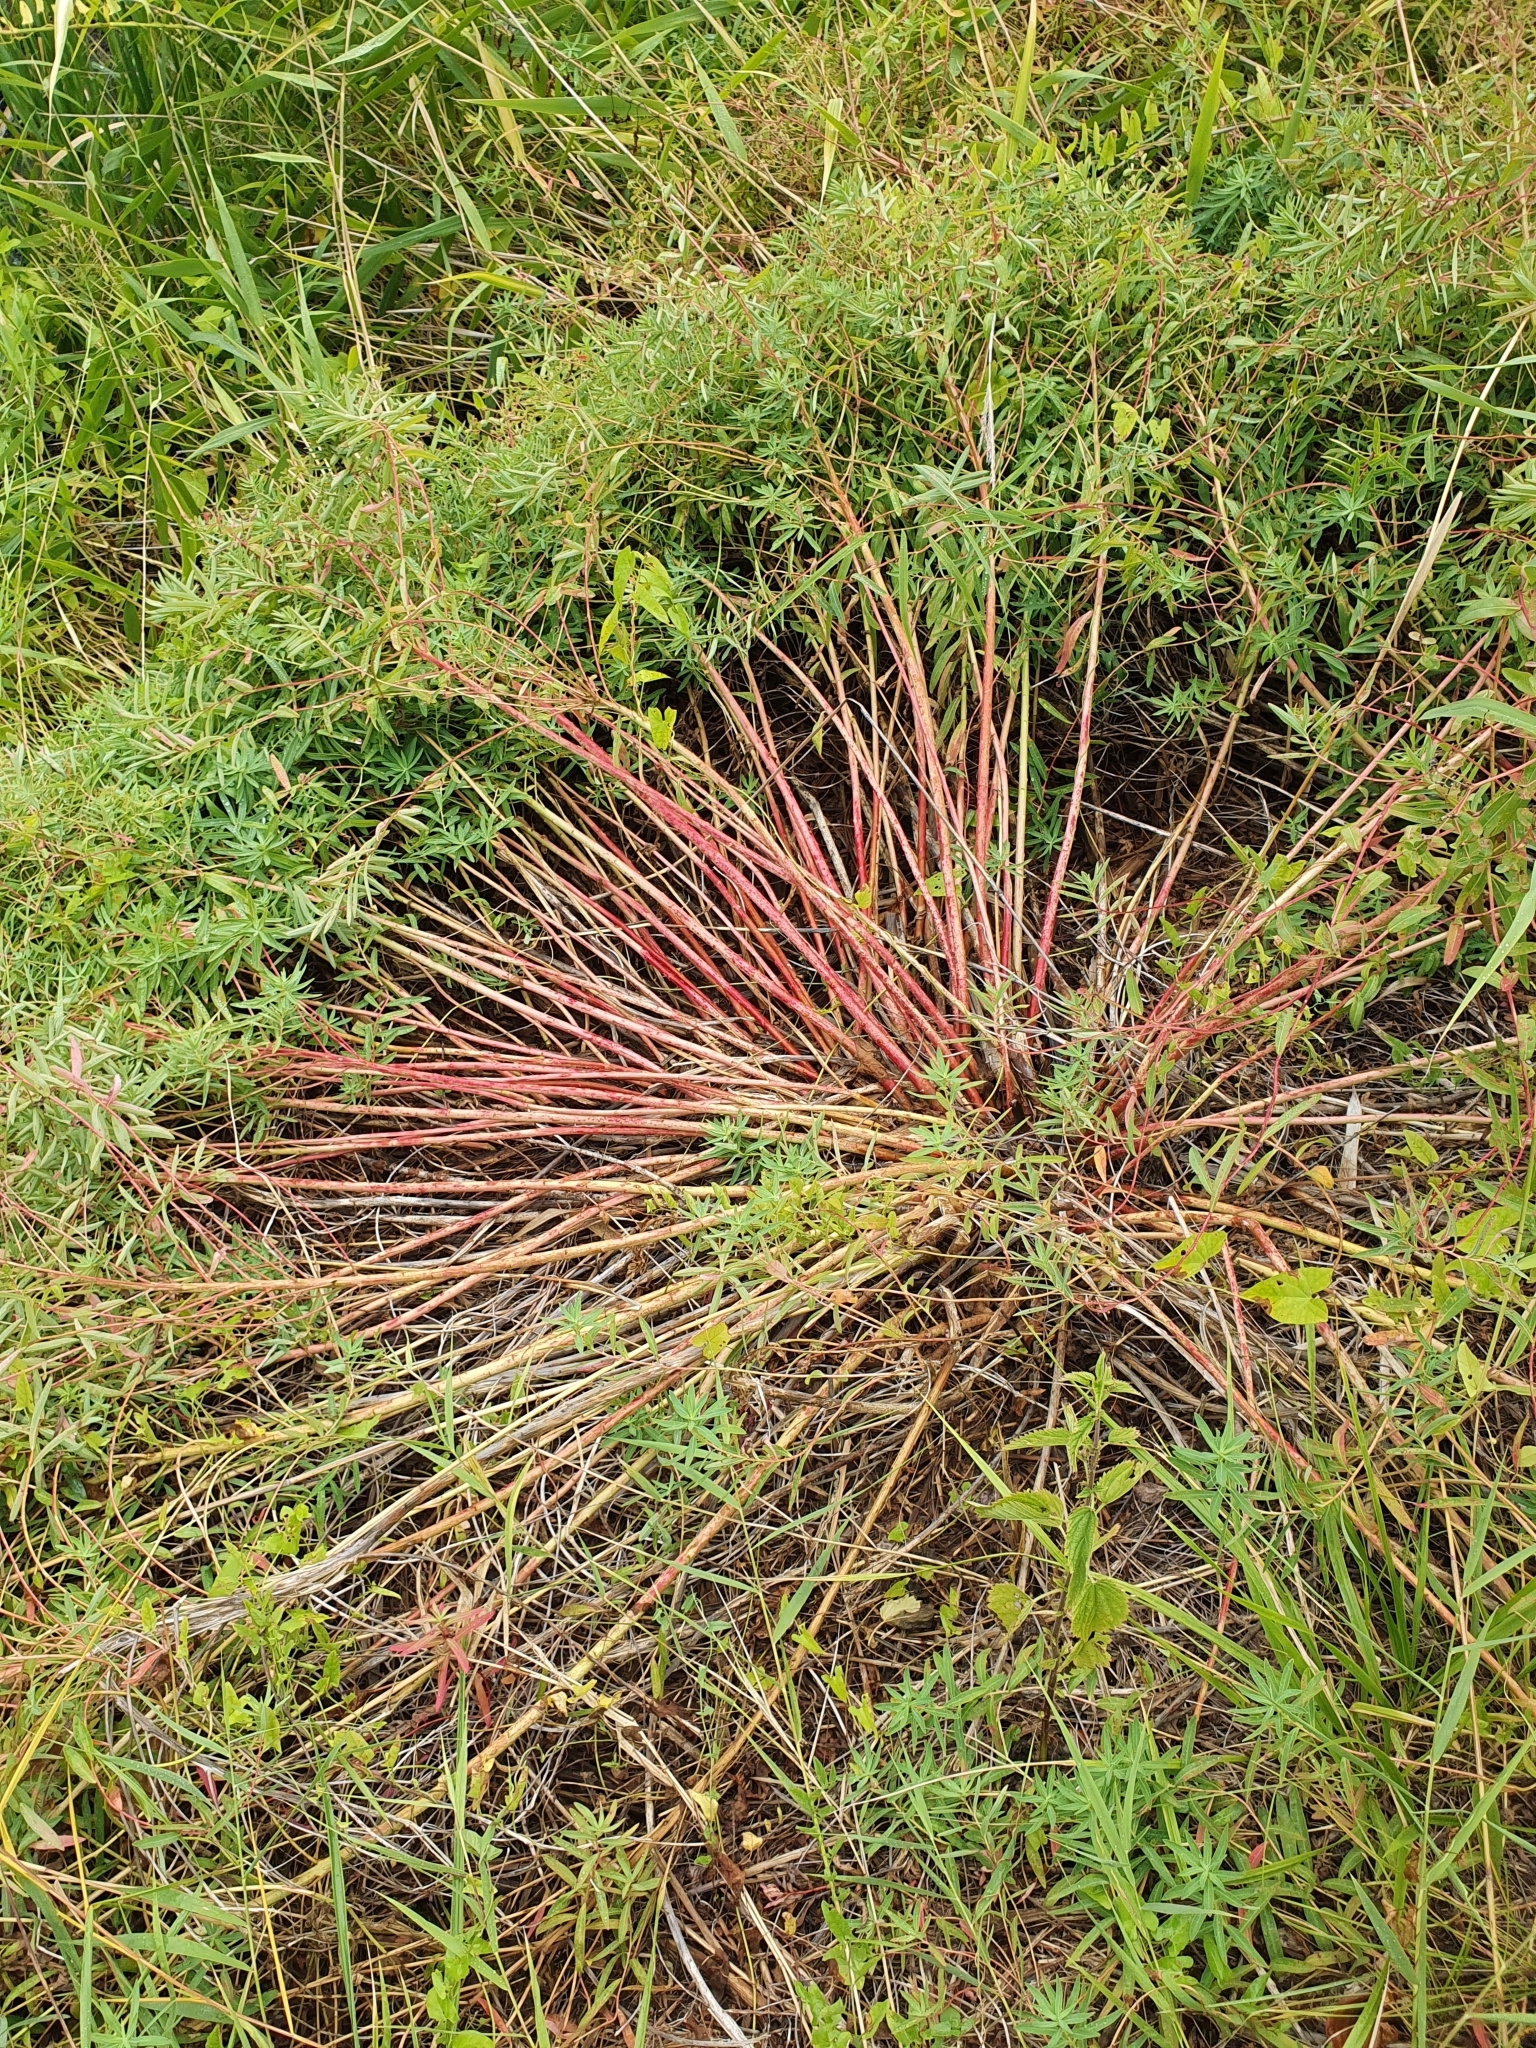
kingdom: Plantae
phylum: Tracheophyta
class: Magnoliopsida
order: Malpighiales
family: Euphorbiaceae
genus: Euphorbia
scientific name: Euphorbia palustris
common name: Marsh spurge
